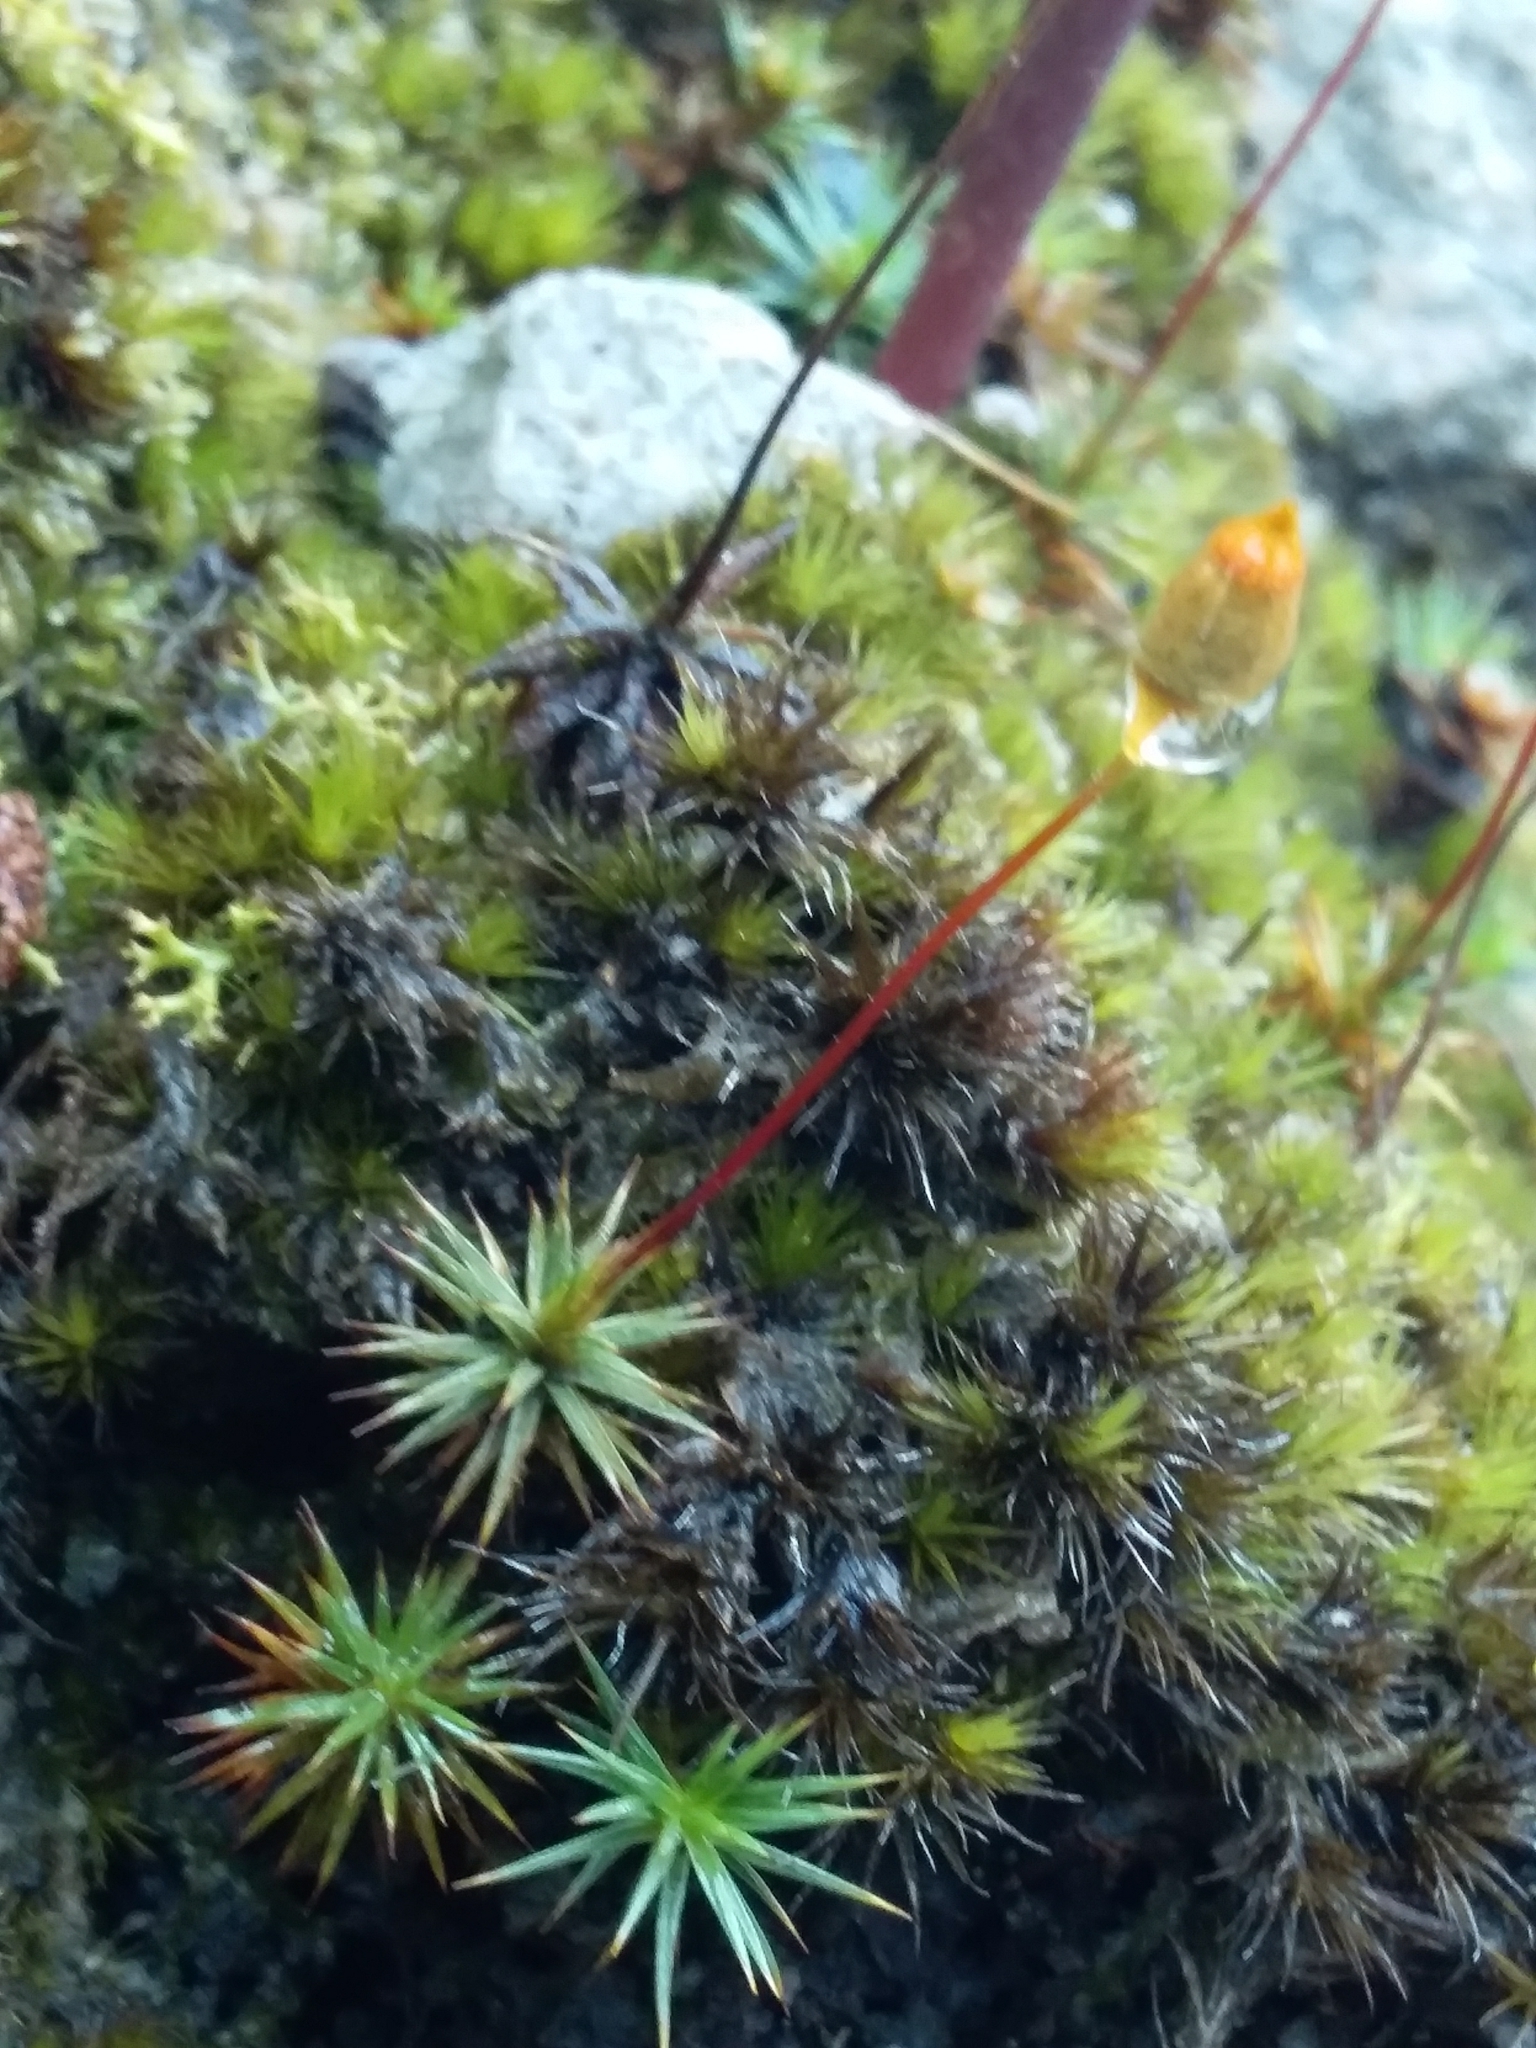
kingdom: Plantae
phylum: Bryophyta
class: Polytrichopsida
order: Polytrichales
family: Polytrichaceae
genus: Polytrichum
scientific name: Polytrichum juniperinum
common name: Juniper haircap moss
